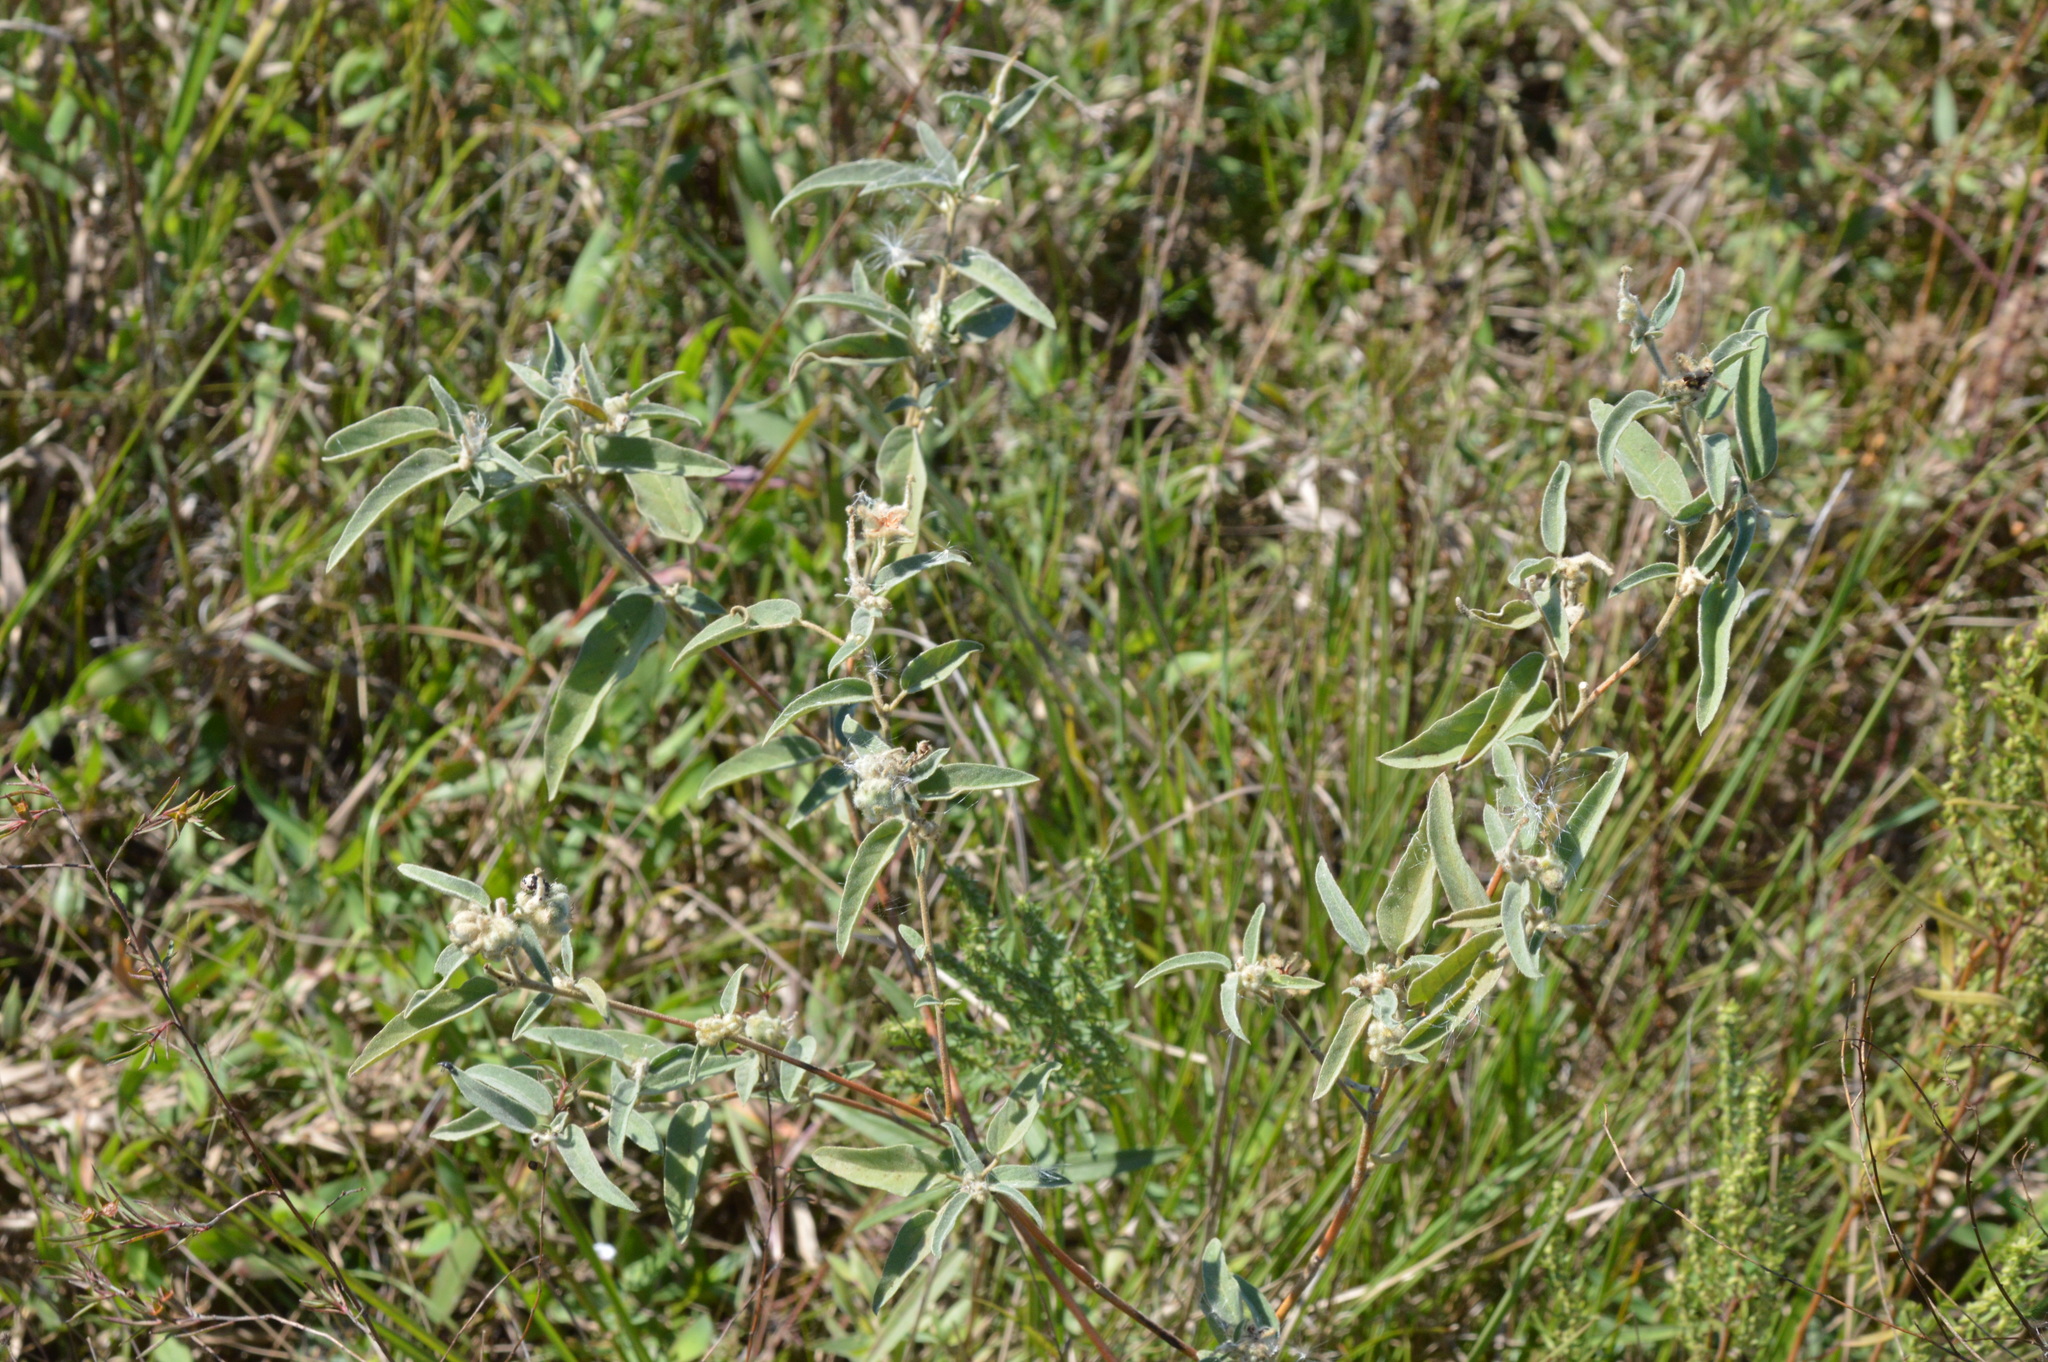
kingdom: Plantae
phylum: Tracheophyta
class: Magnoliopsida
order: Malpighiales
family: Euphorbiaceae
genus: Croton
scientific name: Croton lindheimeri
